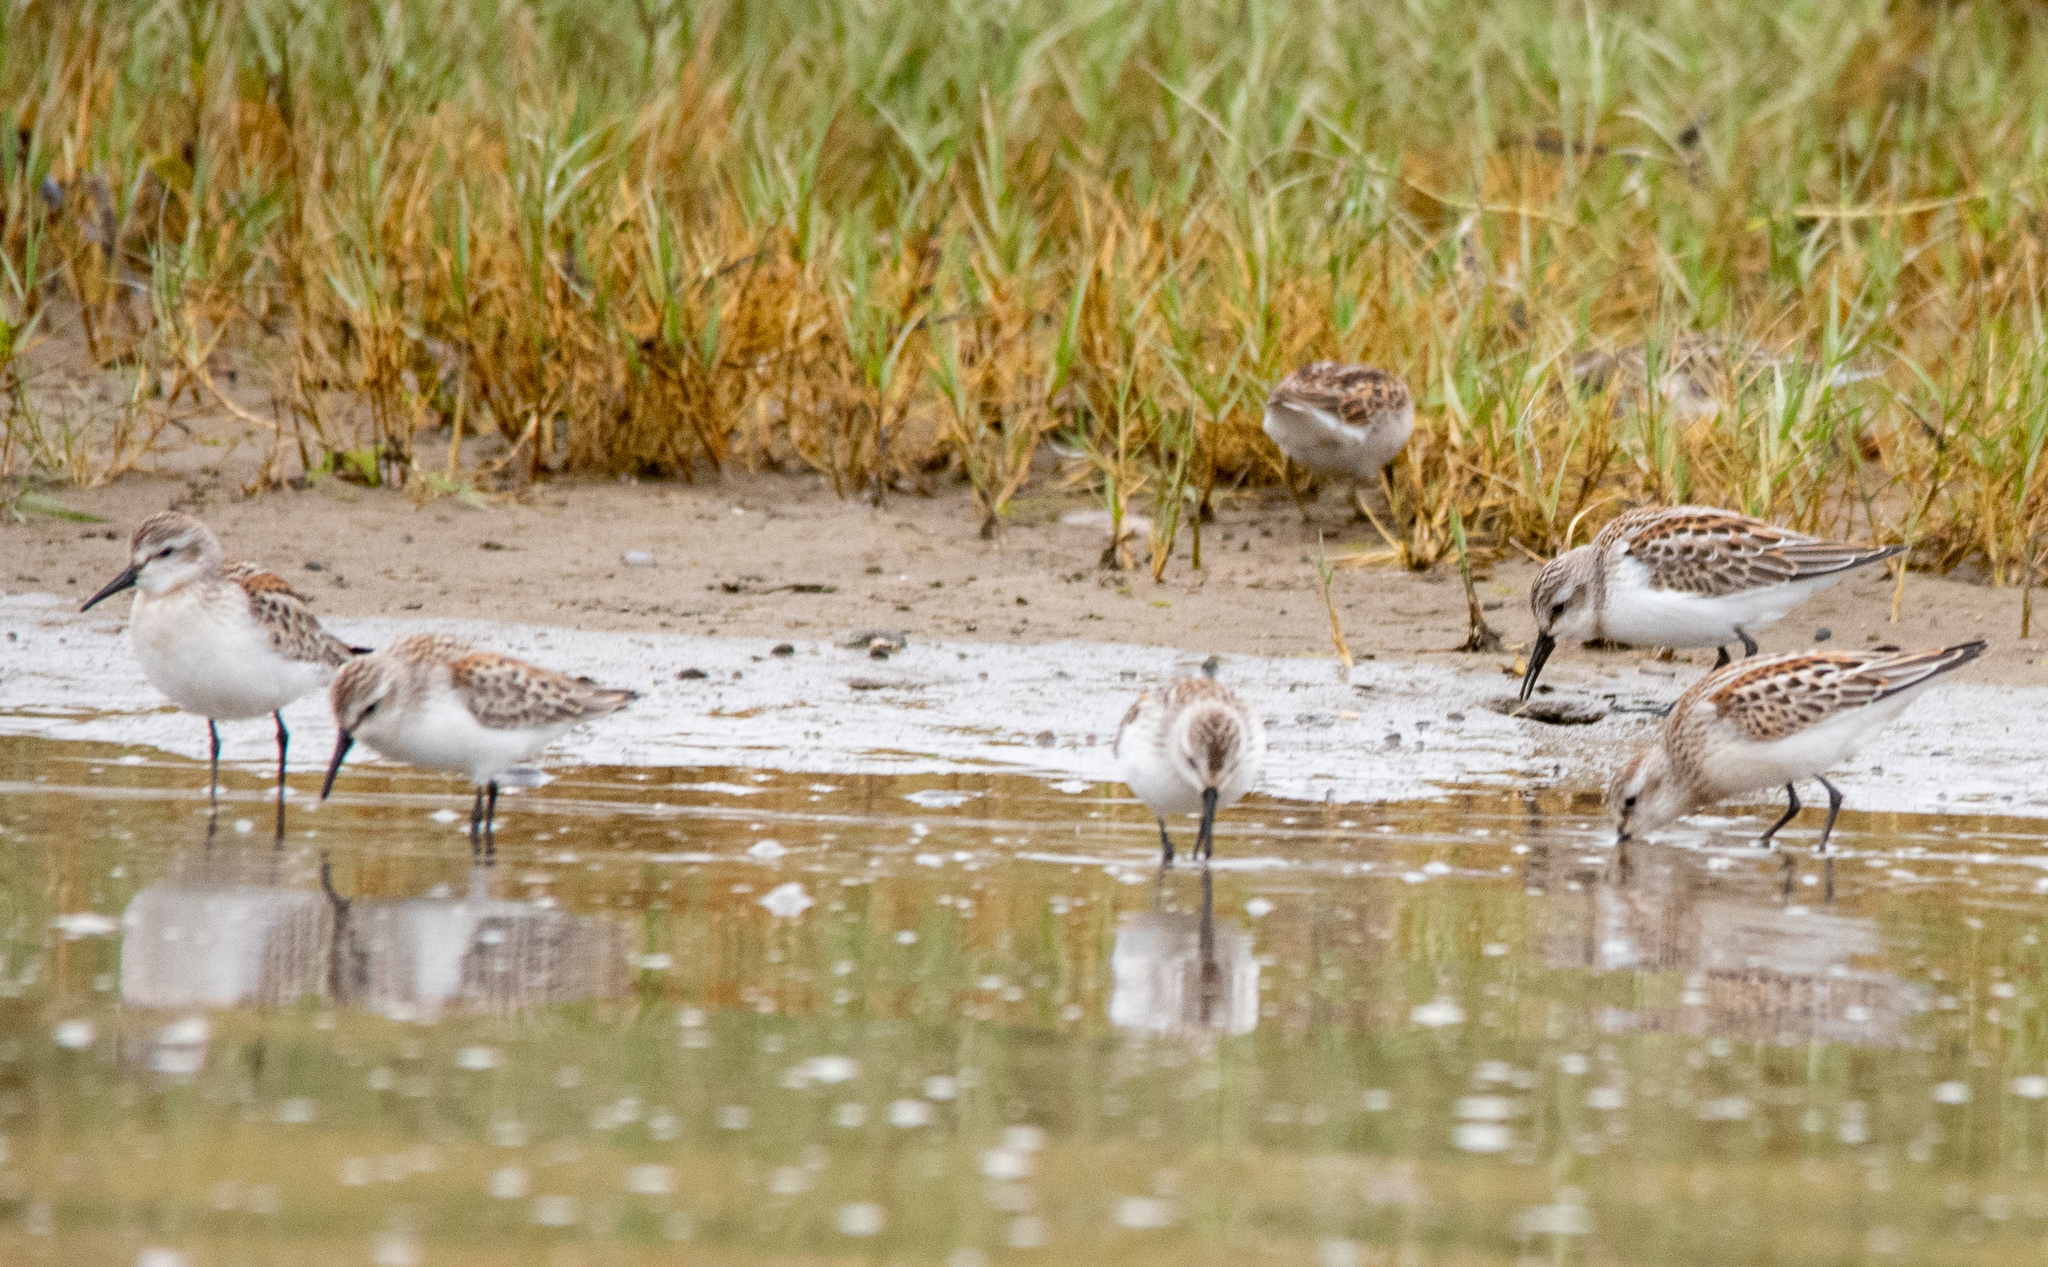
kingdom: Animalia
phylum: Chordata
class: Aves
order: Charadriiformes
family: Scolopacidae
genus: Calidris
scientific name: Calidris mauri
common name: Western sandpiper
